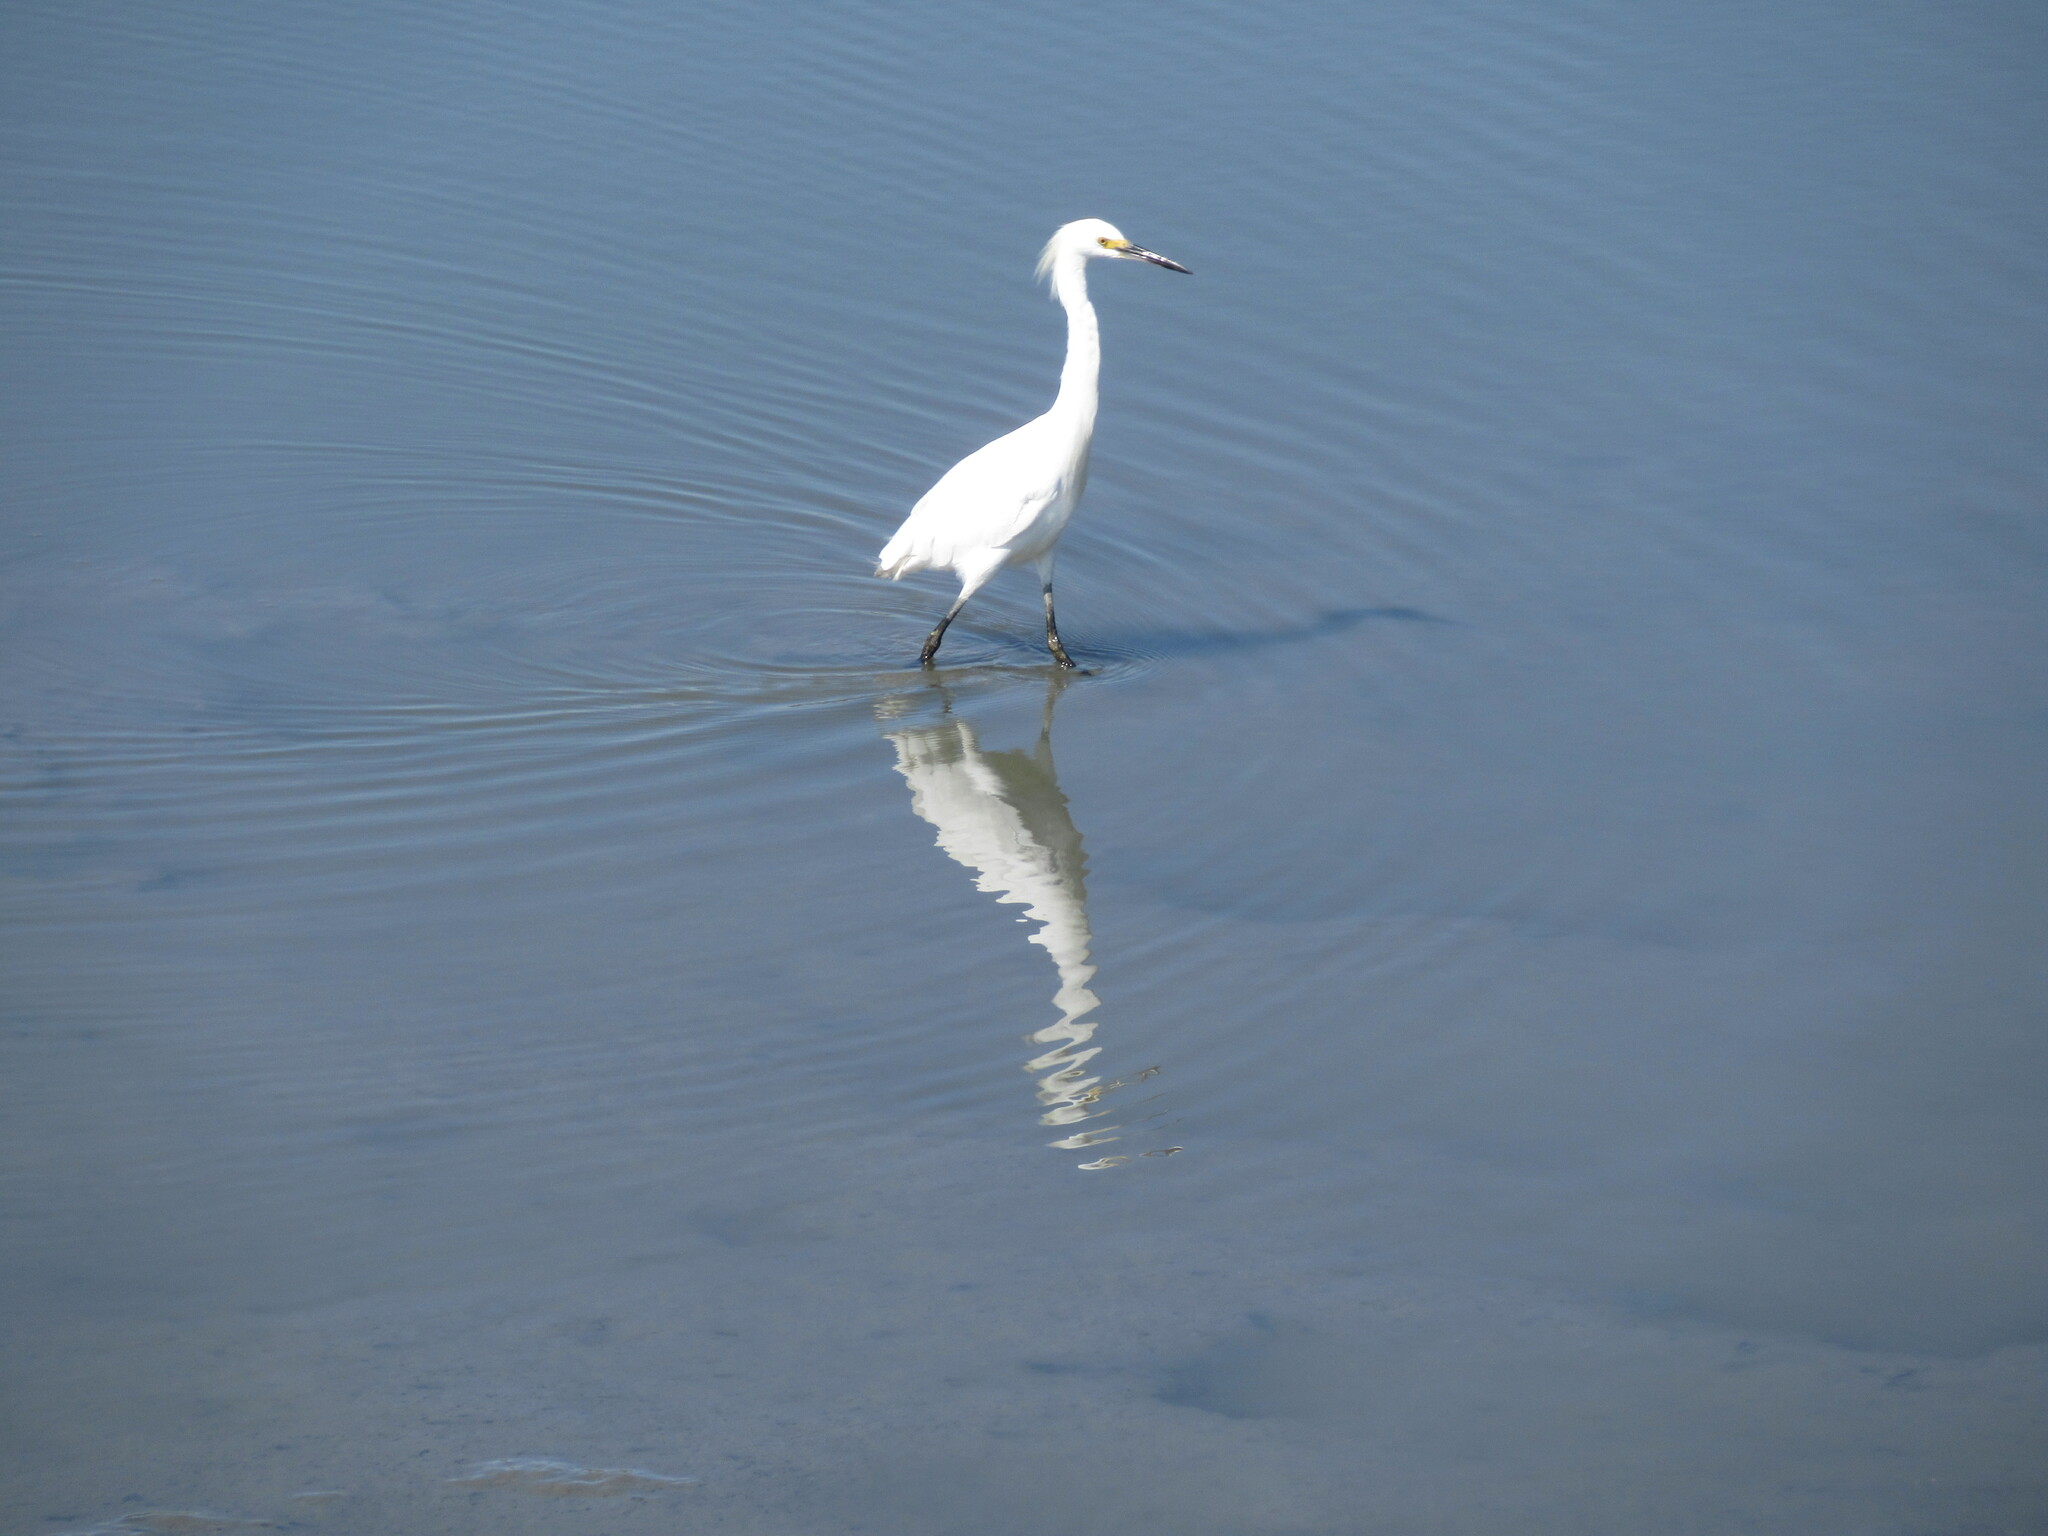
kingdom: Animalia
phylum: Chordata
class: Aves
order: Pelecaniformes
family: Ardeidae
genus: Egretta
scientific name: Egretta thula
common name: Snowy egret
